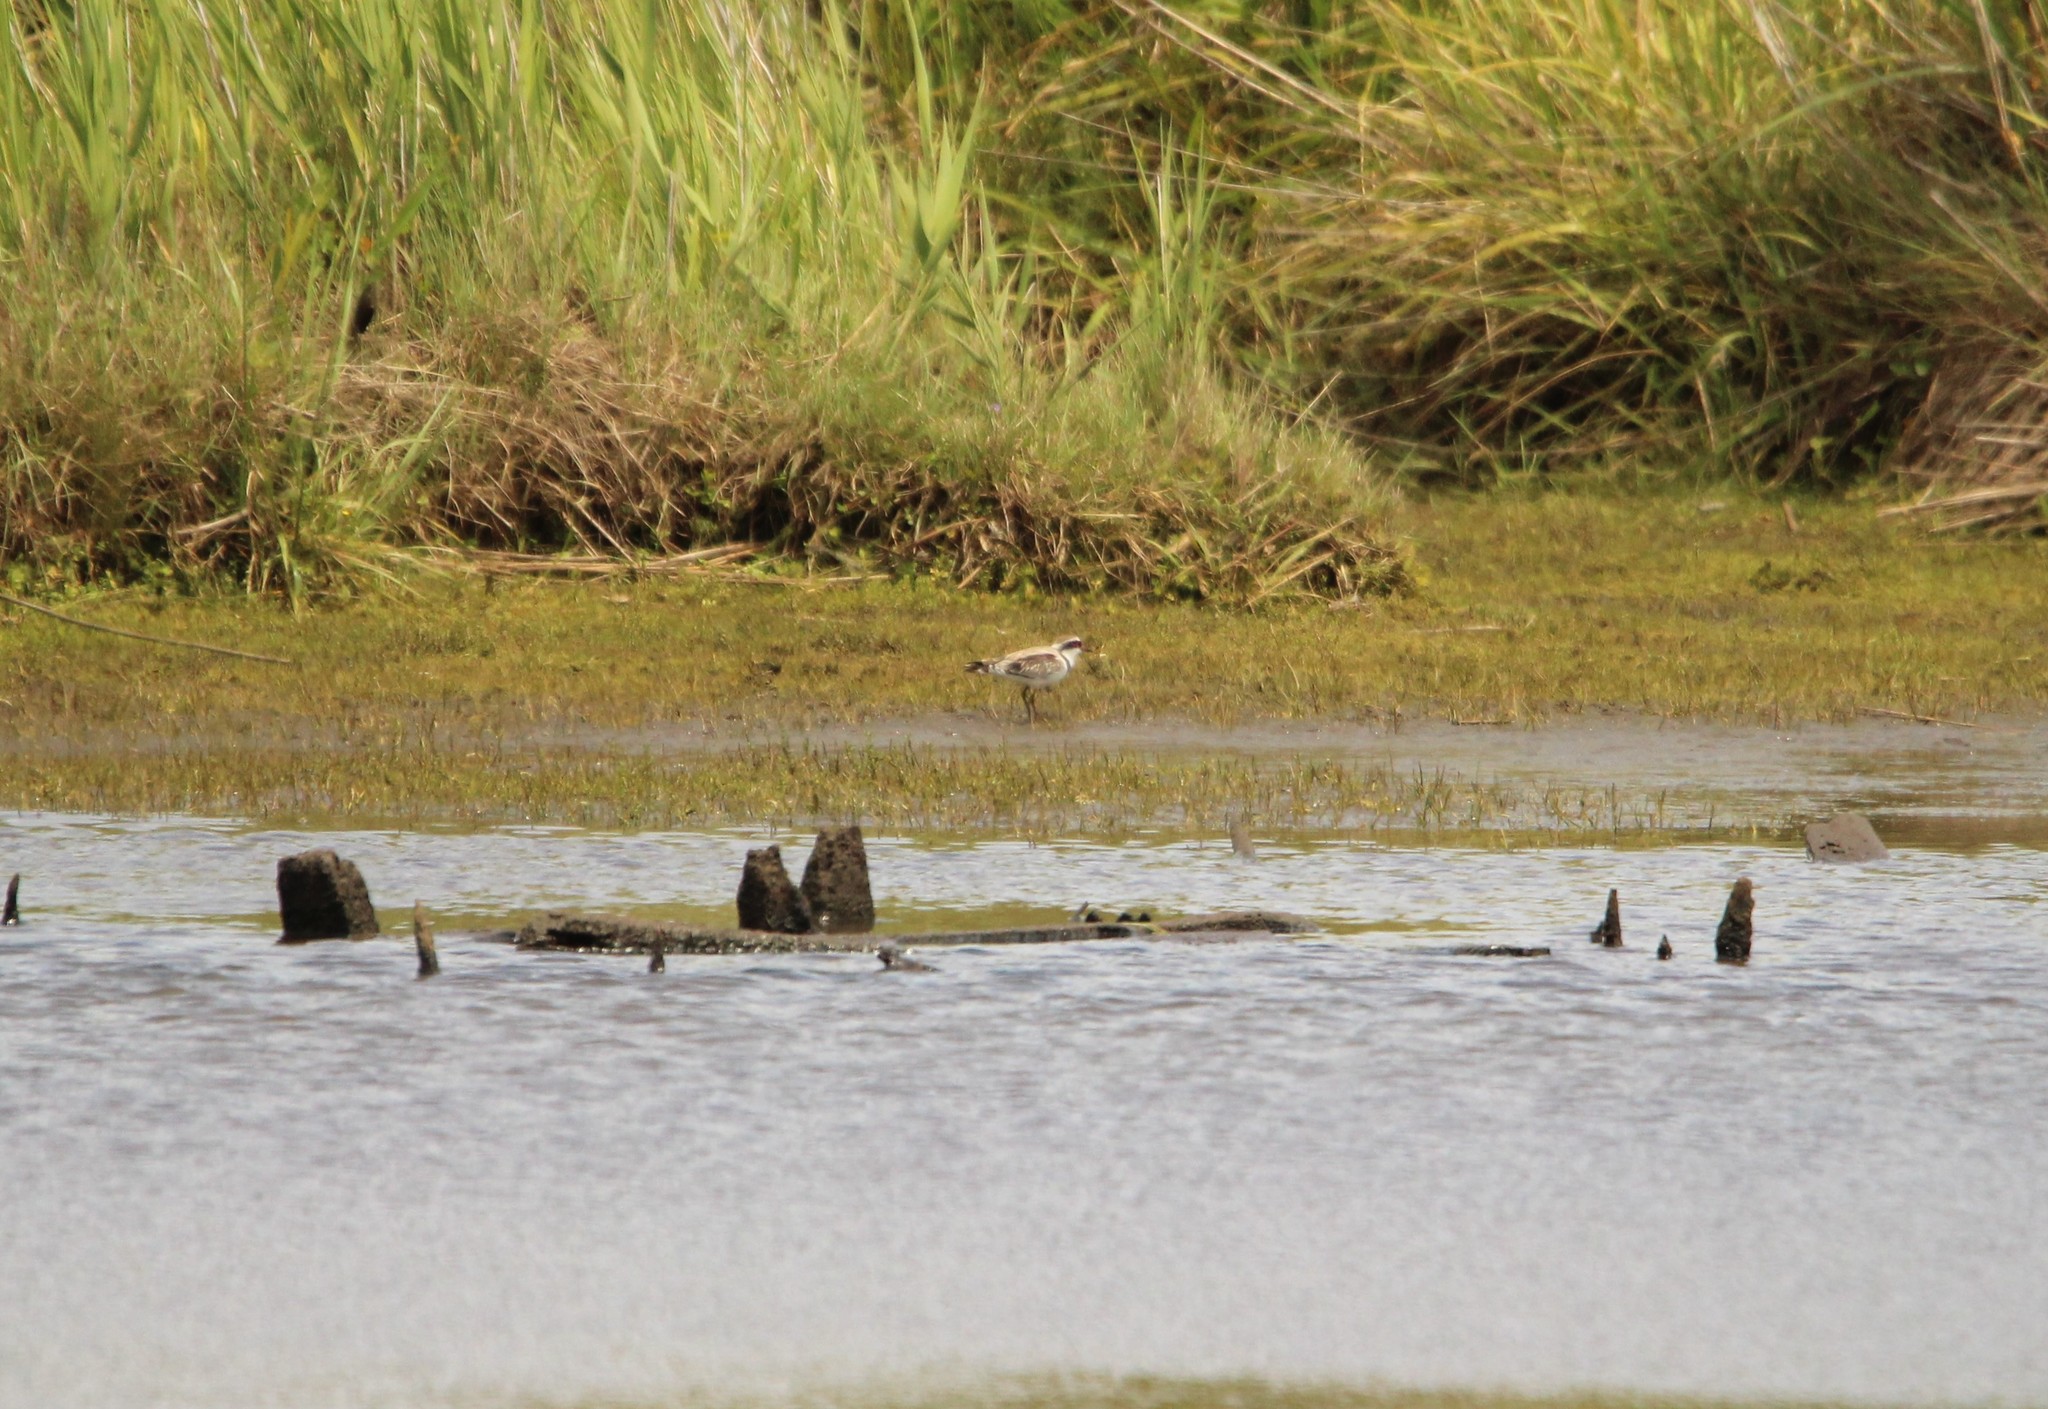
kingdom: Animalia
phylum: Chordata
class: Aves
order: Charadriiformes
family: Charadriidae
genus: Elseyornis
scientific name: Elseyornis melanops
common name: Black-fronted dotterel
